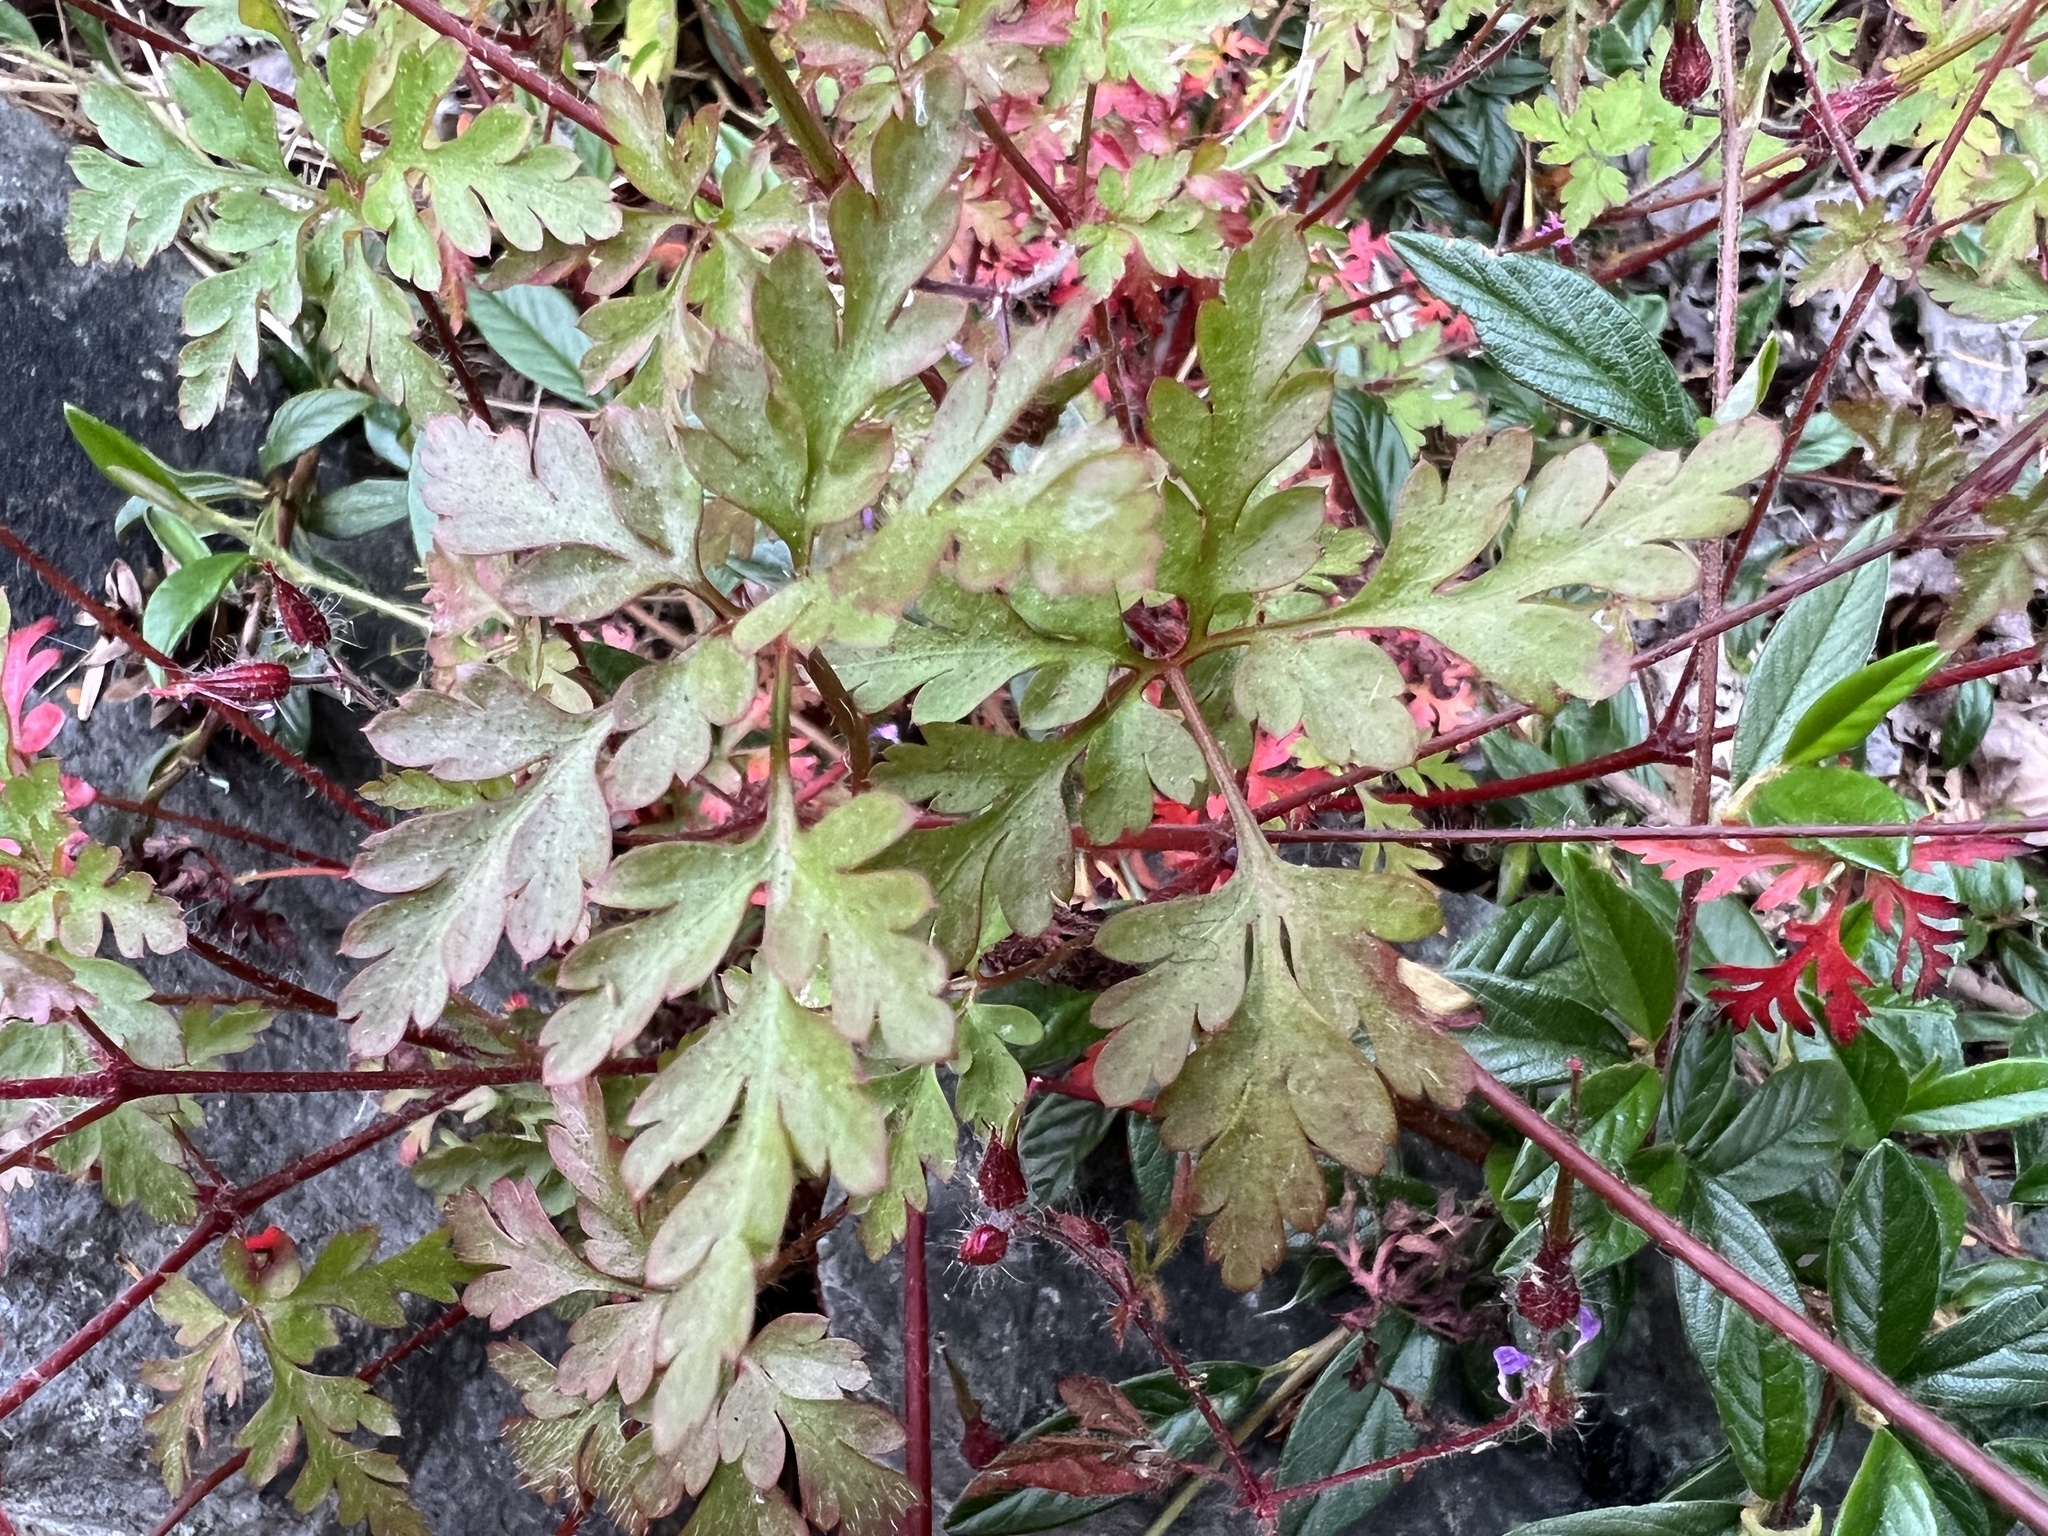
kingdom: Plantae
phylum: Tracheophyta
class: Magnoliopsida
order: Geraniales
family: Geraniaceae
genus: Geranium
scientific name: Geranium robertianum
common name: Herb-robert
